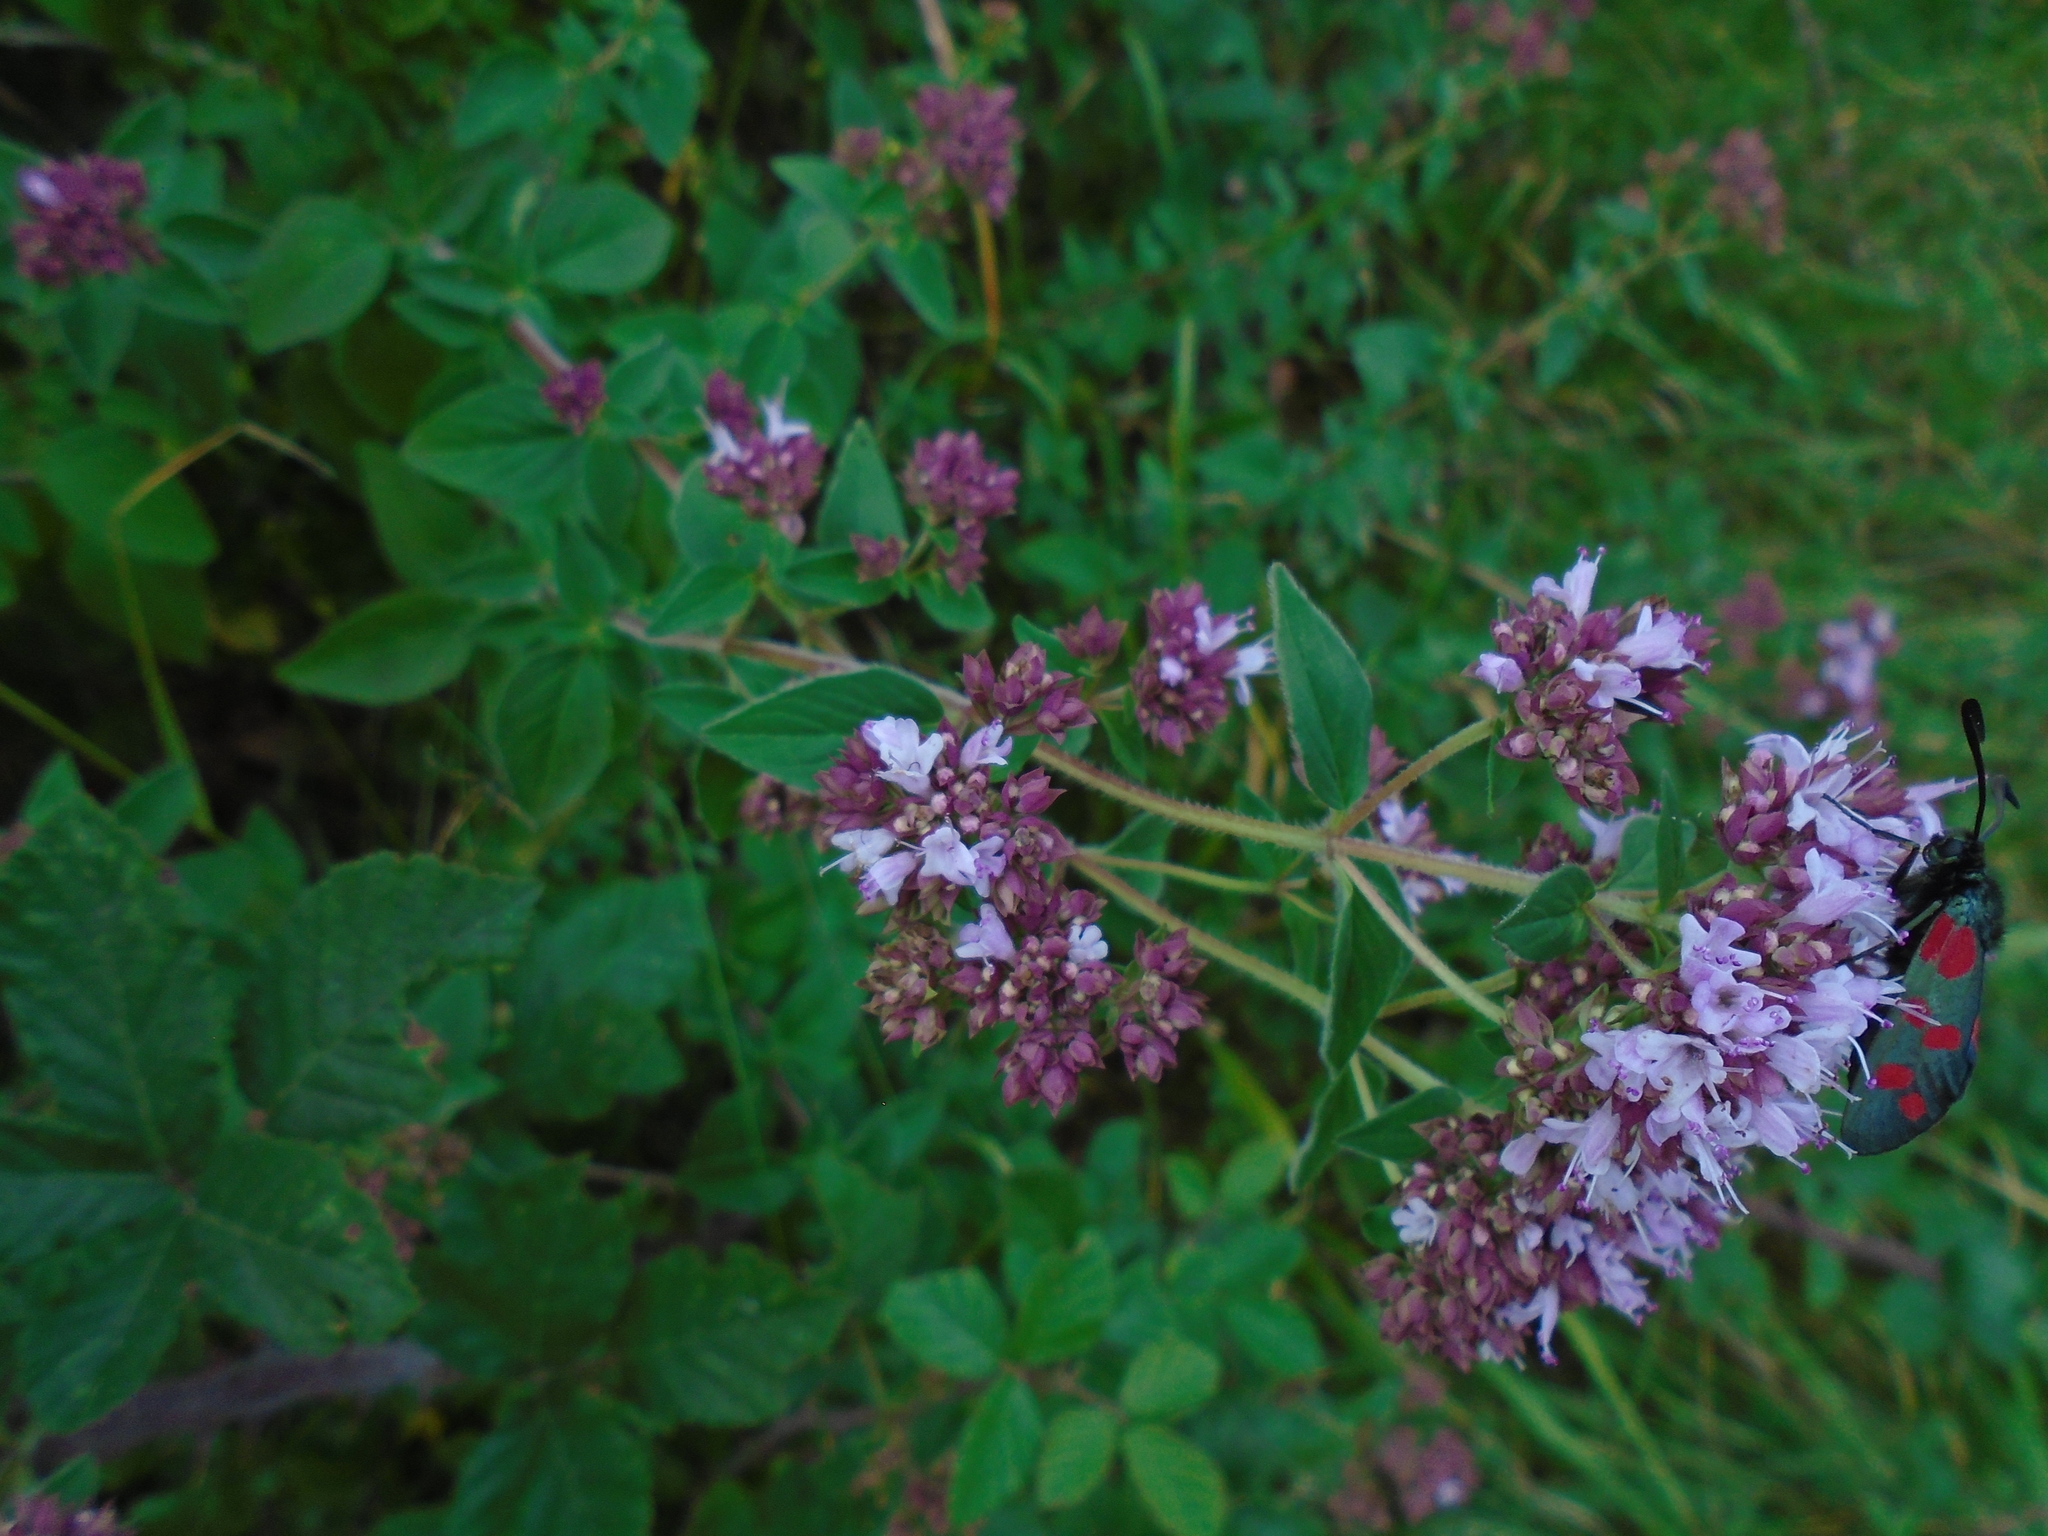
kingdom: Plantae
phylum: Tracheophyta
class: Magnoliopsida
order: Lamiales
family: Lamiaceae
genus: Origanum
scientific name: Origanum vulgare
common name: Wild marjoram
